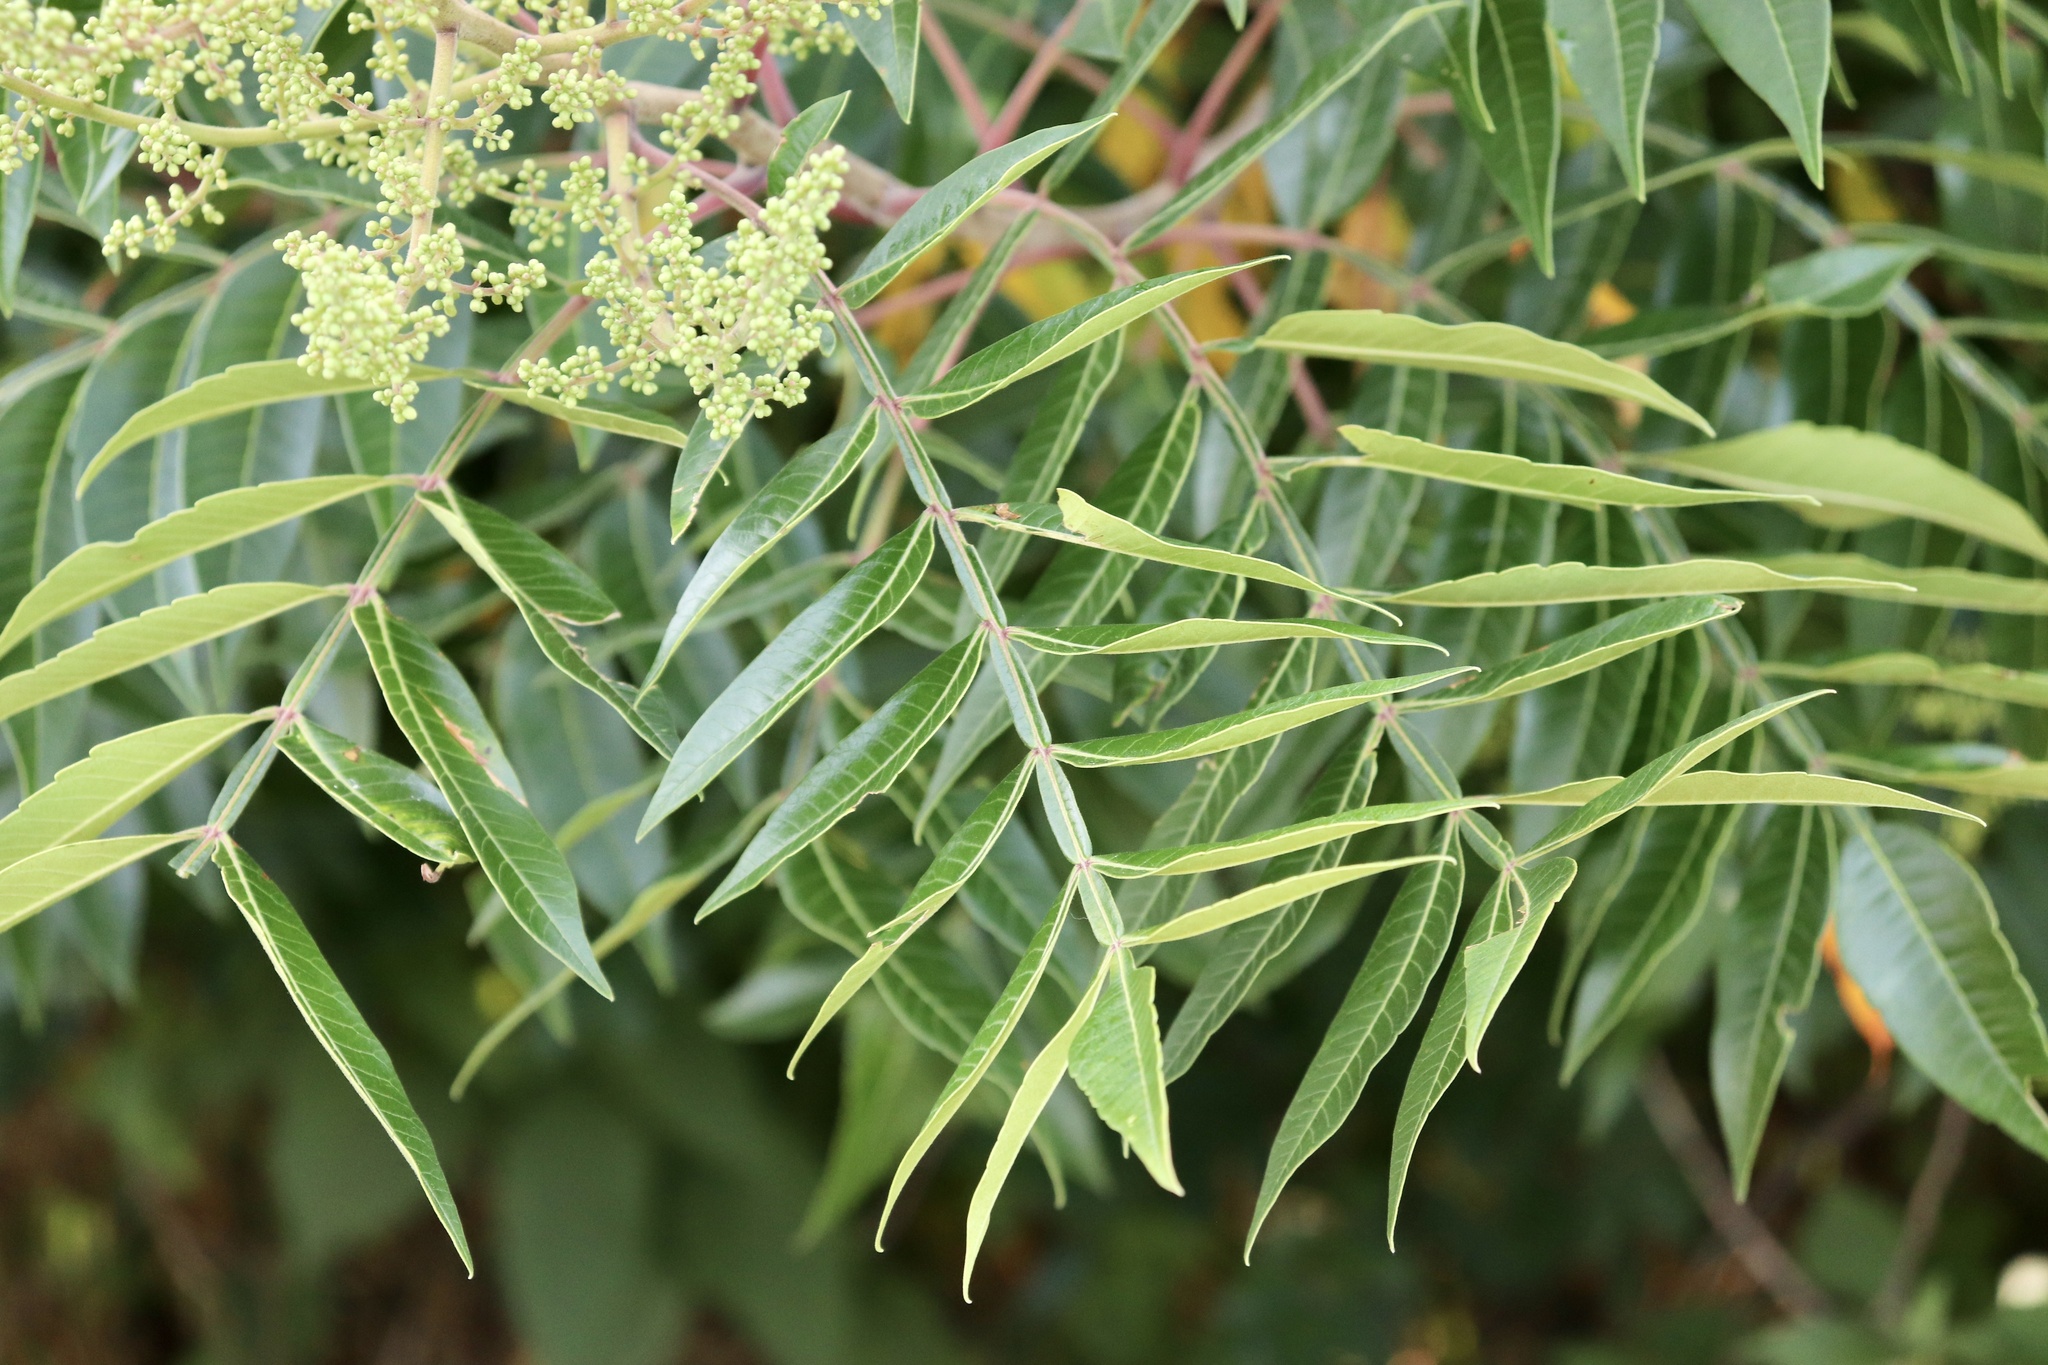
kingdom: Plantae
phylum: Tracheophyta
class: Magnoliopsida
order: Sapindales
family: Anacardiaceae
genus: Rhus
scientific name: Rhus copallina
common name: Shining sumac
